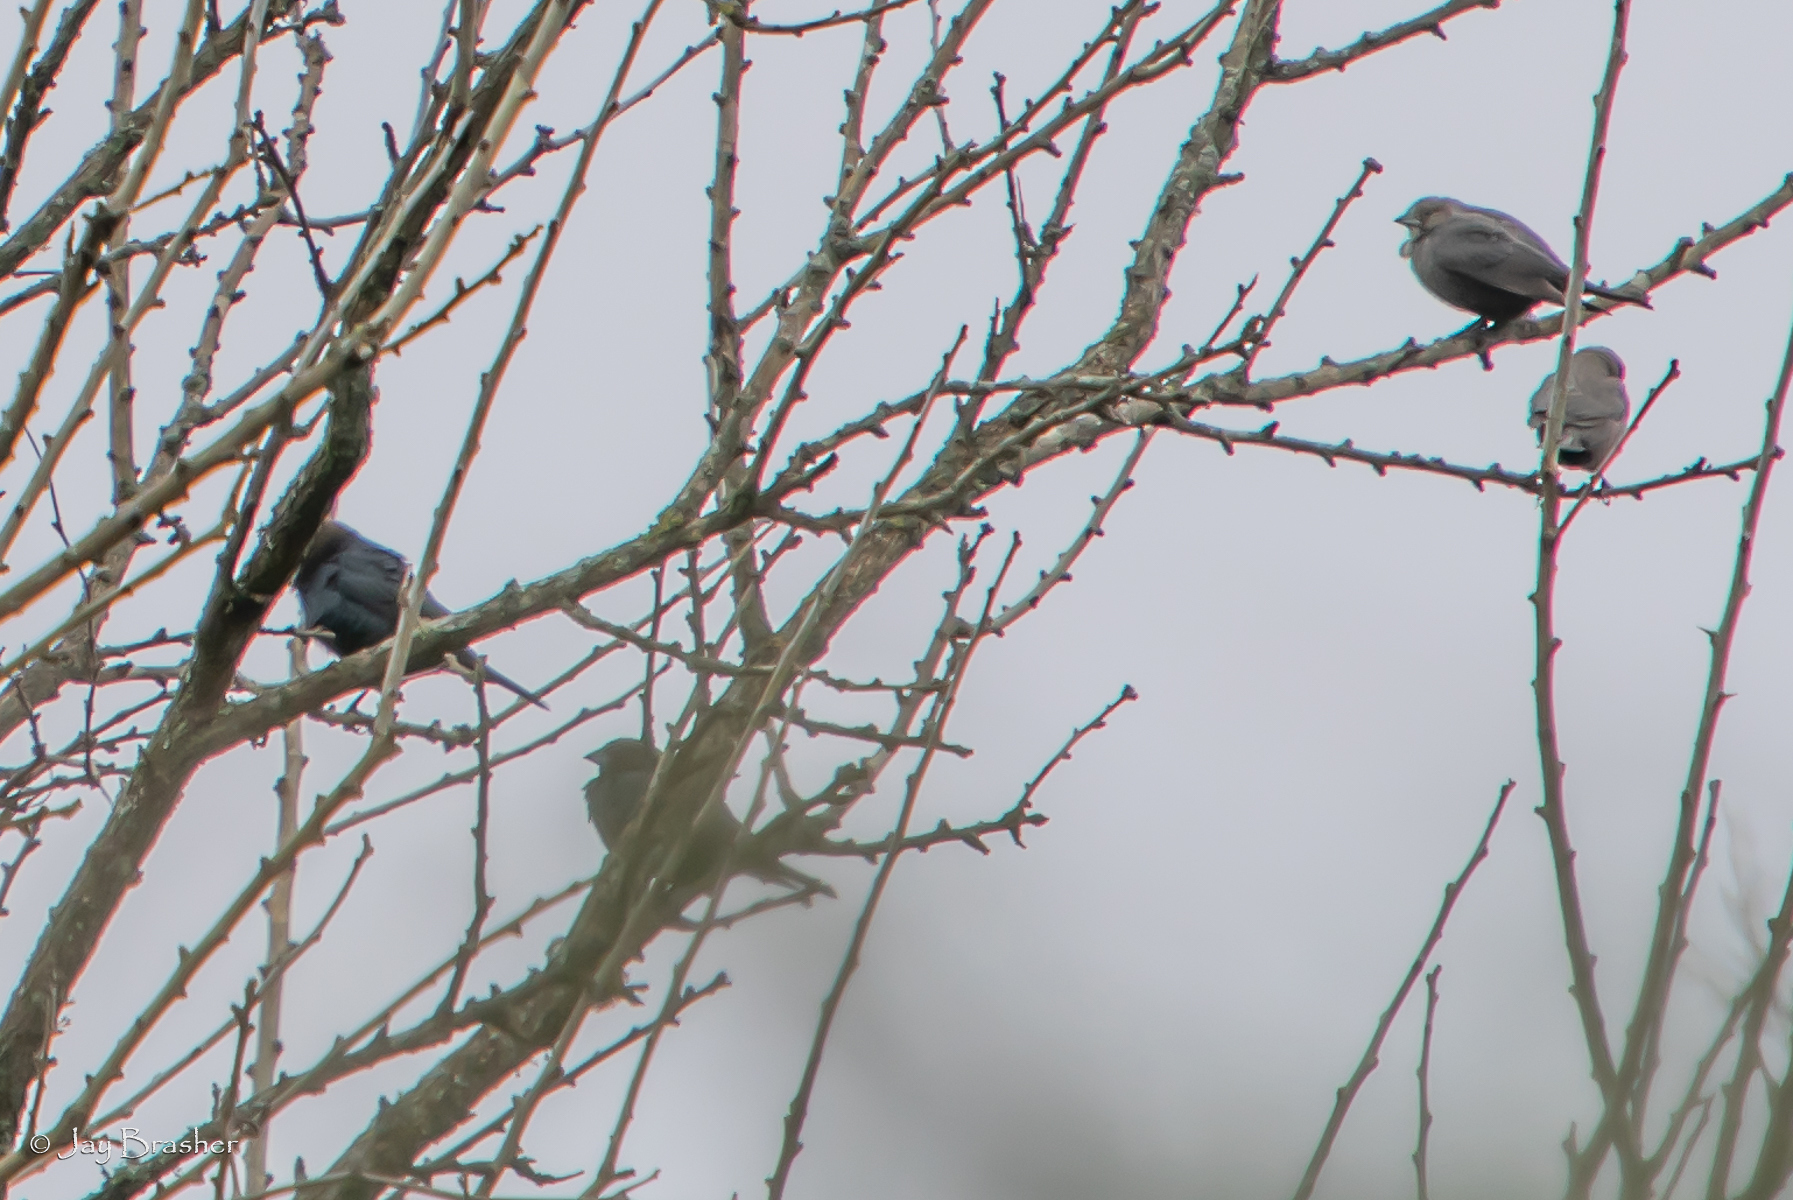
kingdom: Animalia
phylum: Chordata
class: Aves
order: Passeriformes
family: Icteridae
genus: Molothrus
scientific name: Molothrus ater
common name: Brown-headed cowbird
